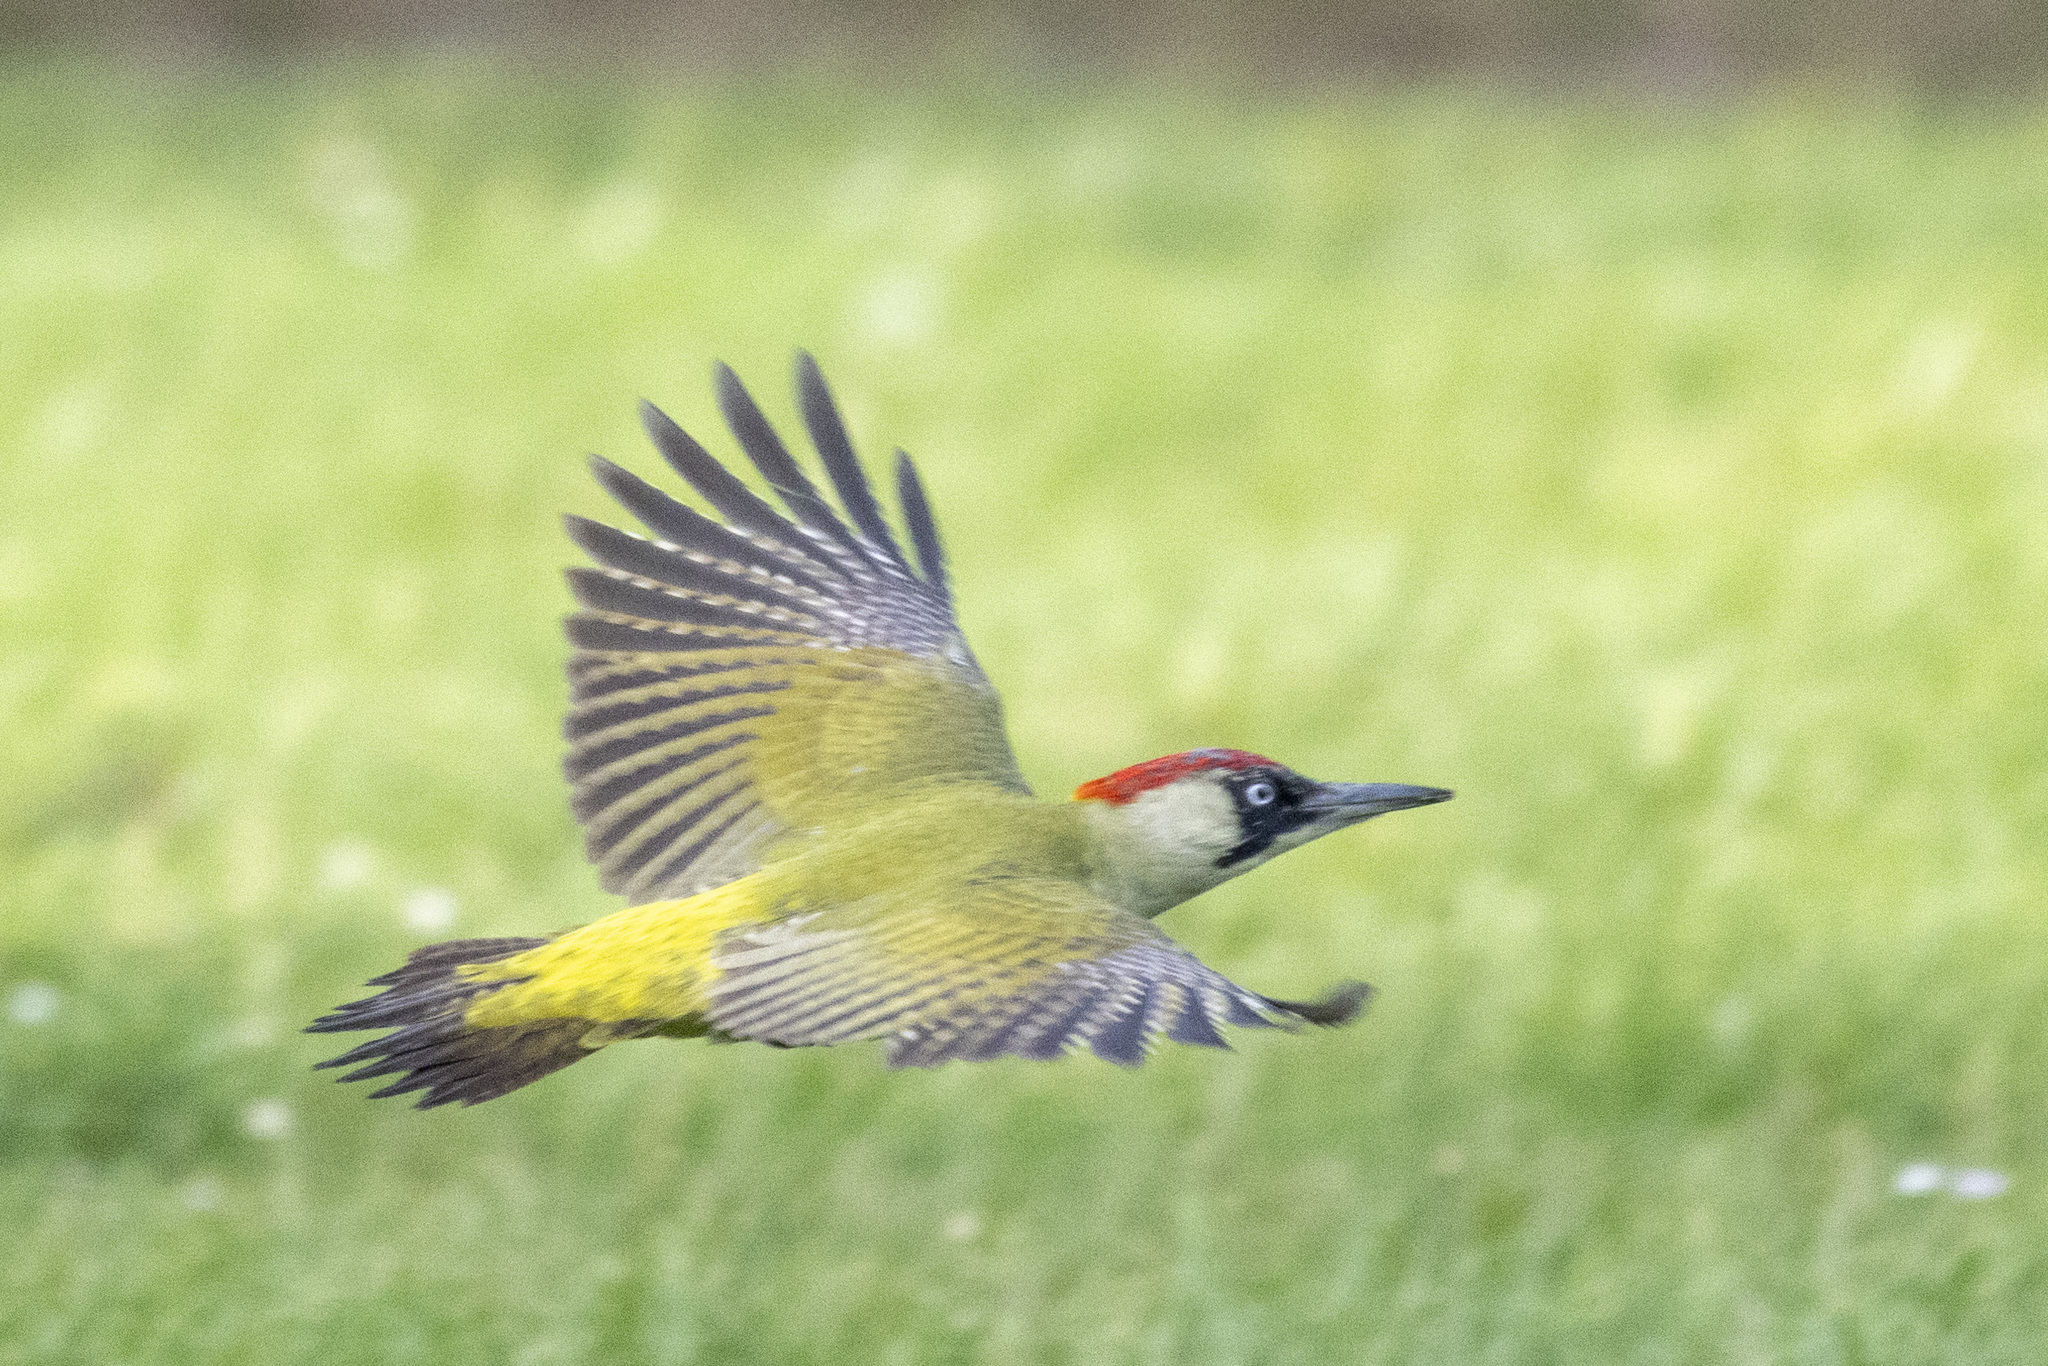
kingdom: Animalia
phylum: Chordata
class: Aves
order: Piciformes
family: Picidae
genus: Picus
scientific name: Picus viridis
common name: European green woodpecker
